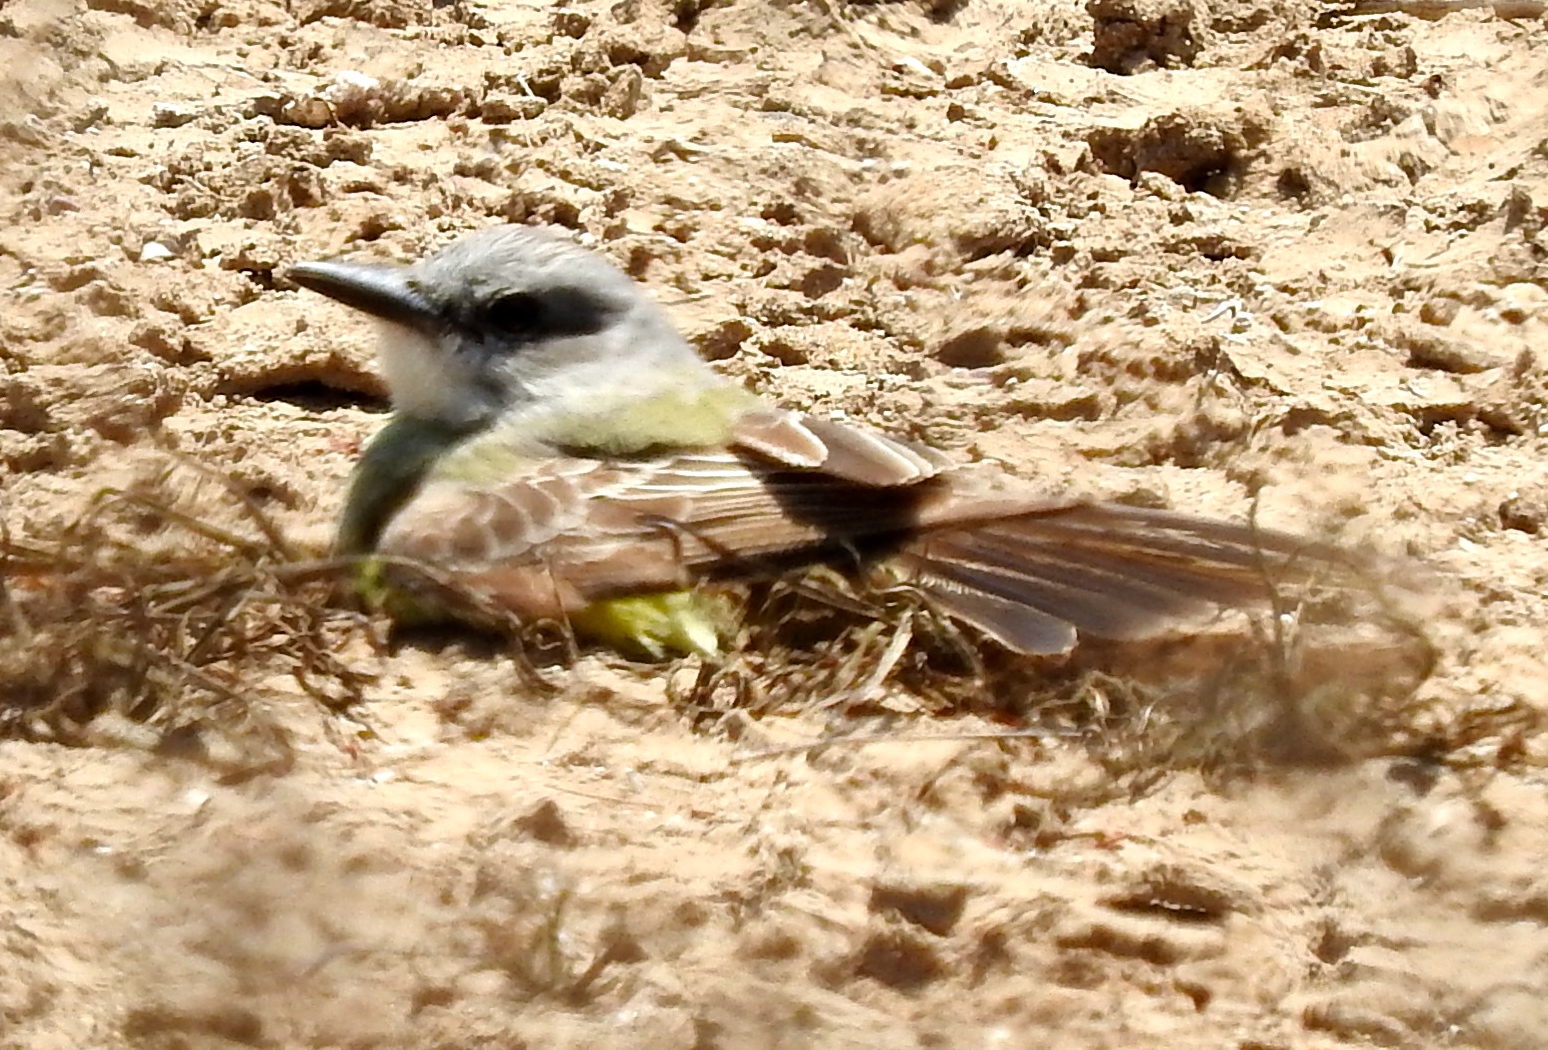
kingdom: Animalia
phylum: Chordata
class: Aves
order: Passeriformes
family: Tyrannidae
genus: Tyrannus
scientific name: Tyrannus melancholicus
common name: Tropical kingbird
